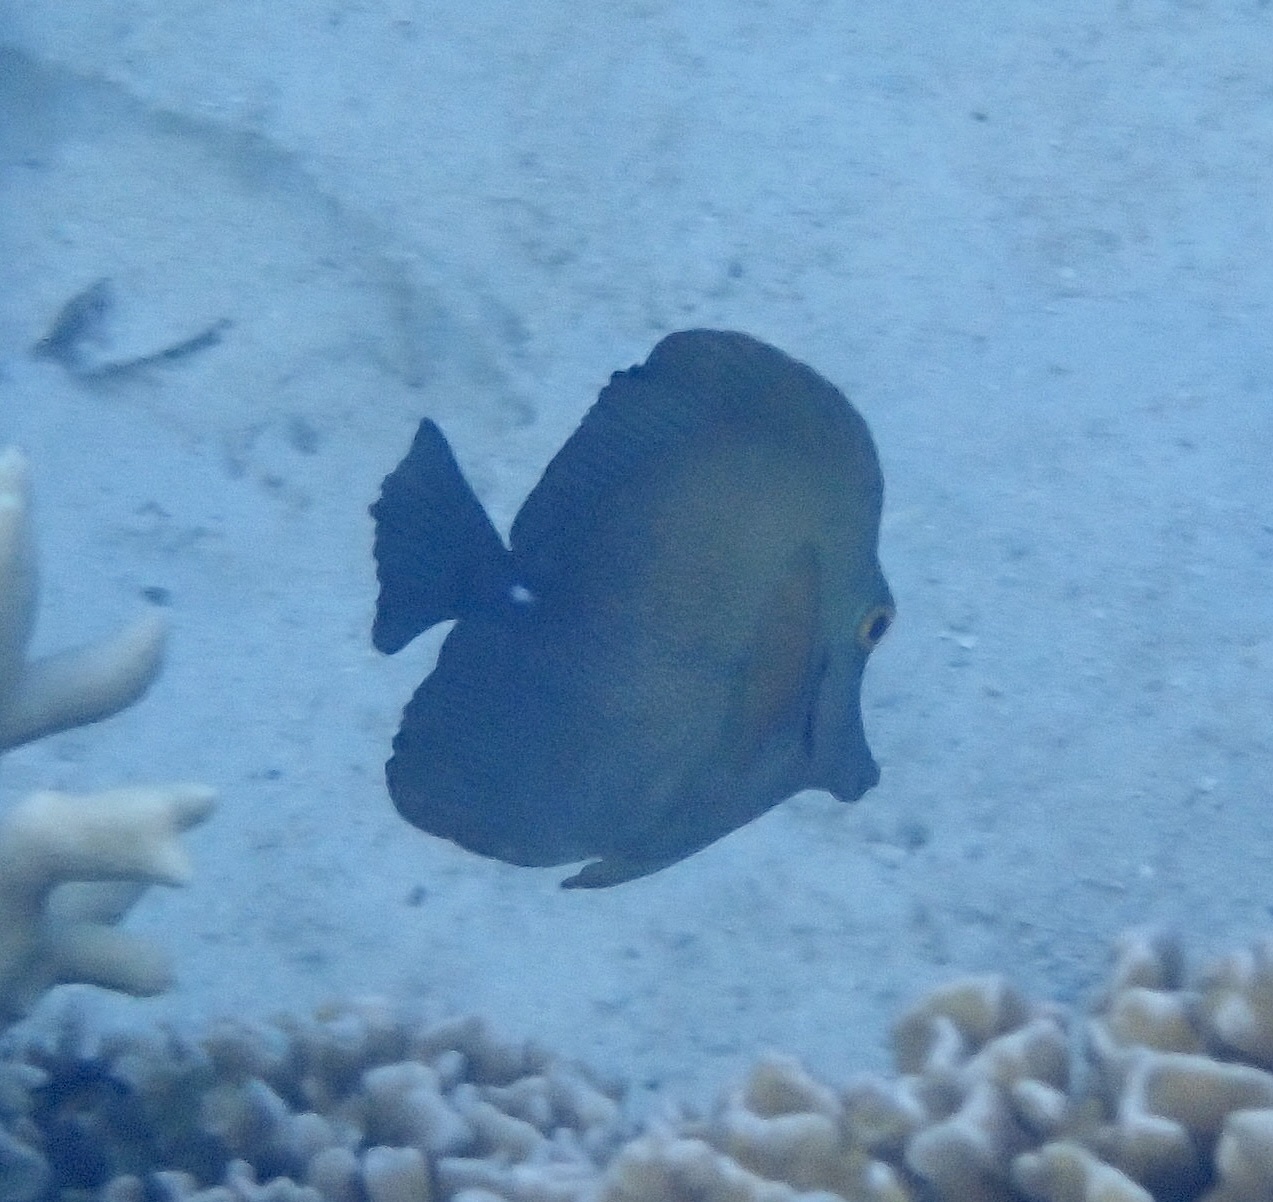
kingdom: Animalia
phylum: Chordata
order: Perciformes
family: Acanthuridae
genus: Zebrasoma
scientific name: Zebrasoma scopas
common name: Twotone tang
